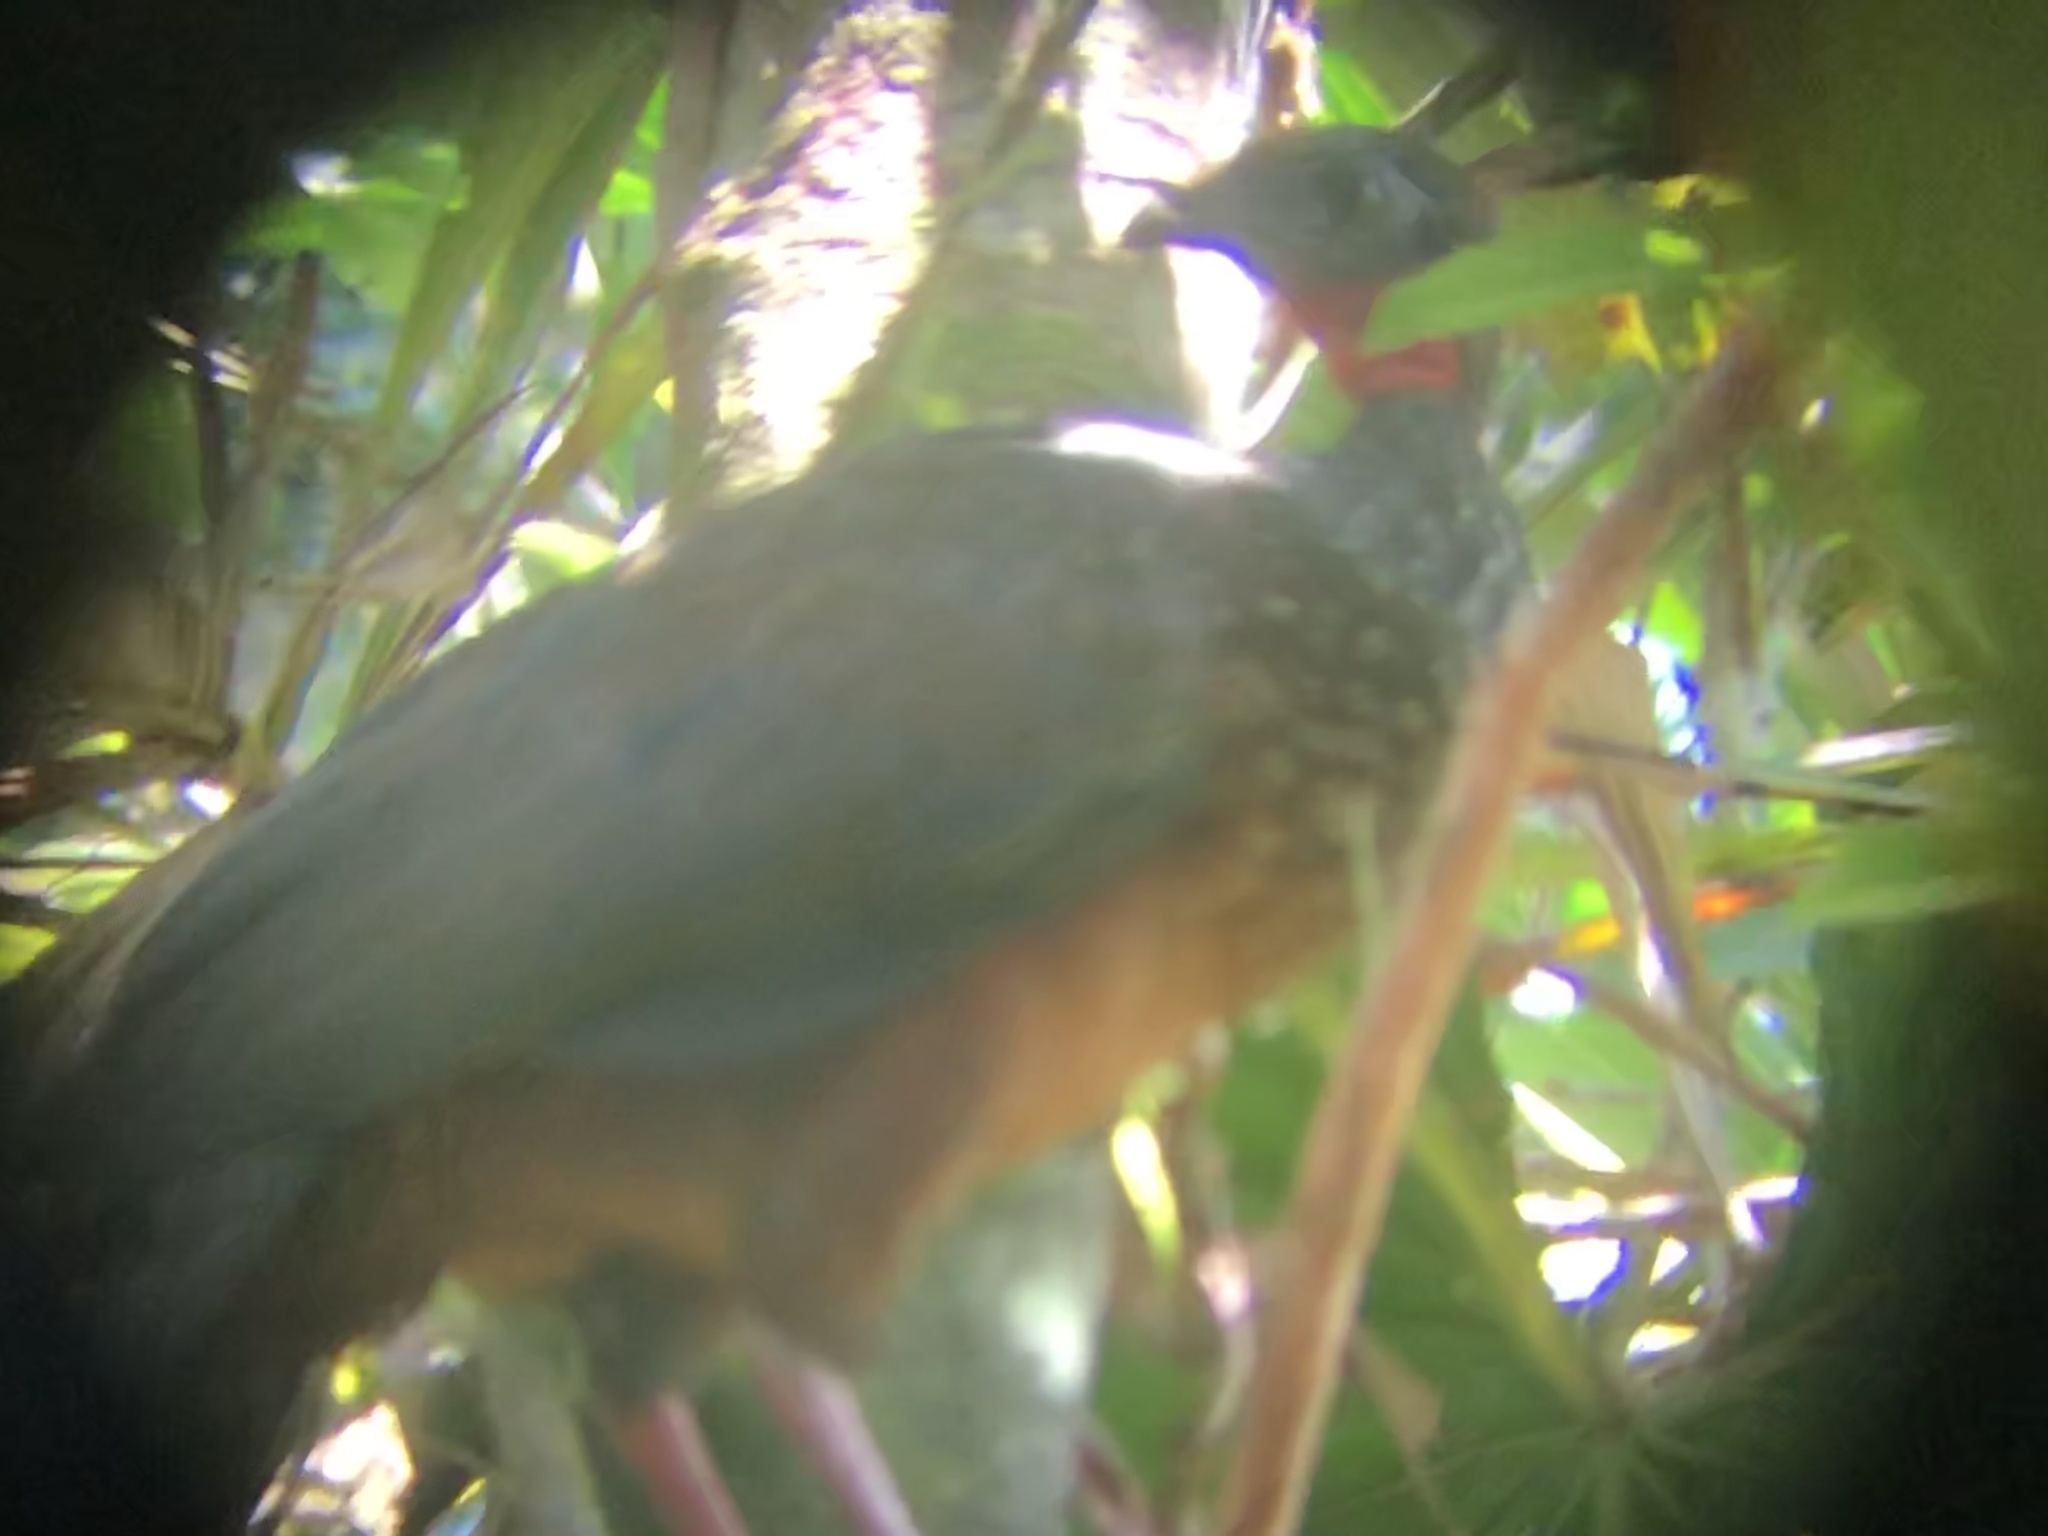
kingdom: Animalia
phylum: Chordata
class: Aves
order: Galliformes
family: Cracidae
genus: Penelope
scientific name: Penelope jacquacu
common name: Spix's guan
